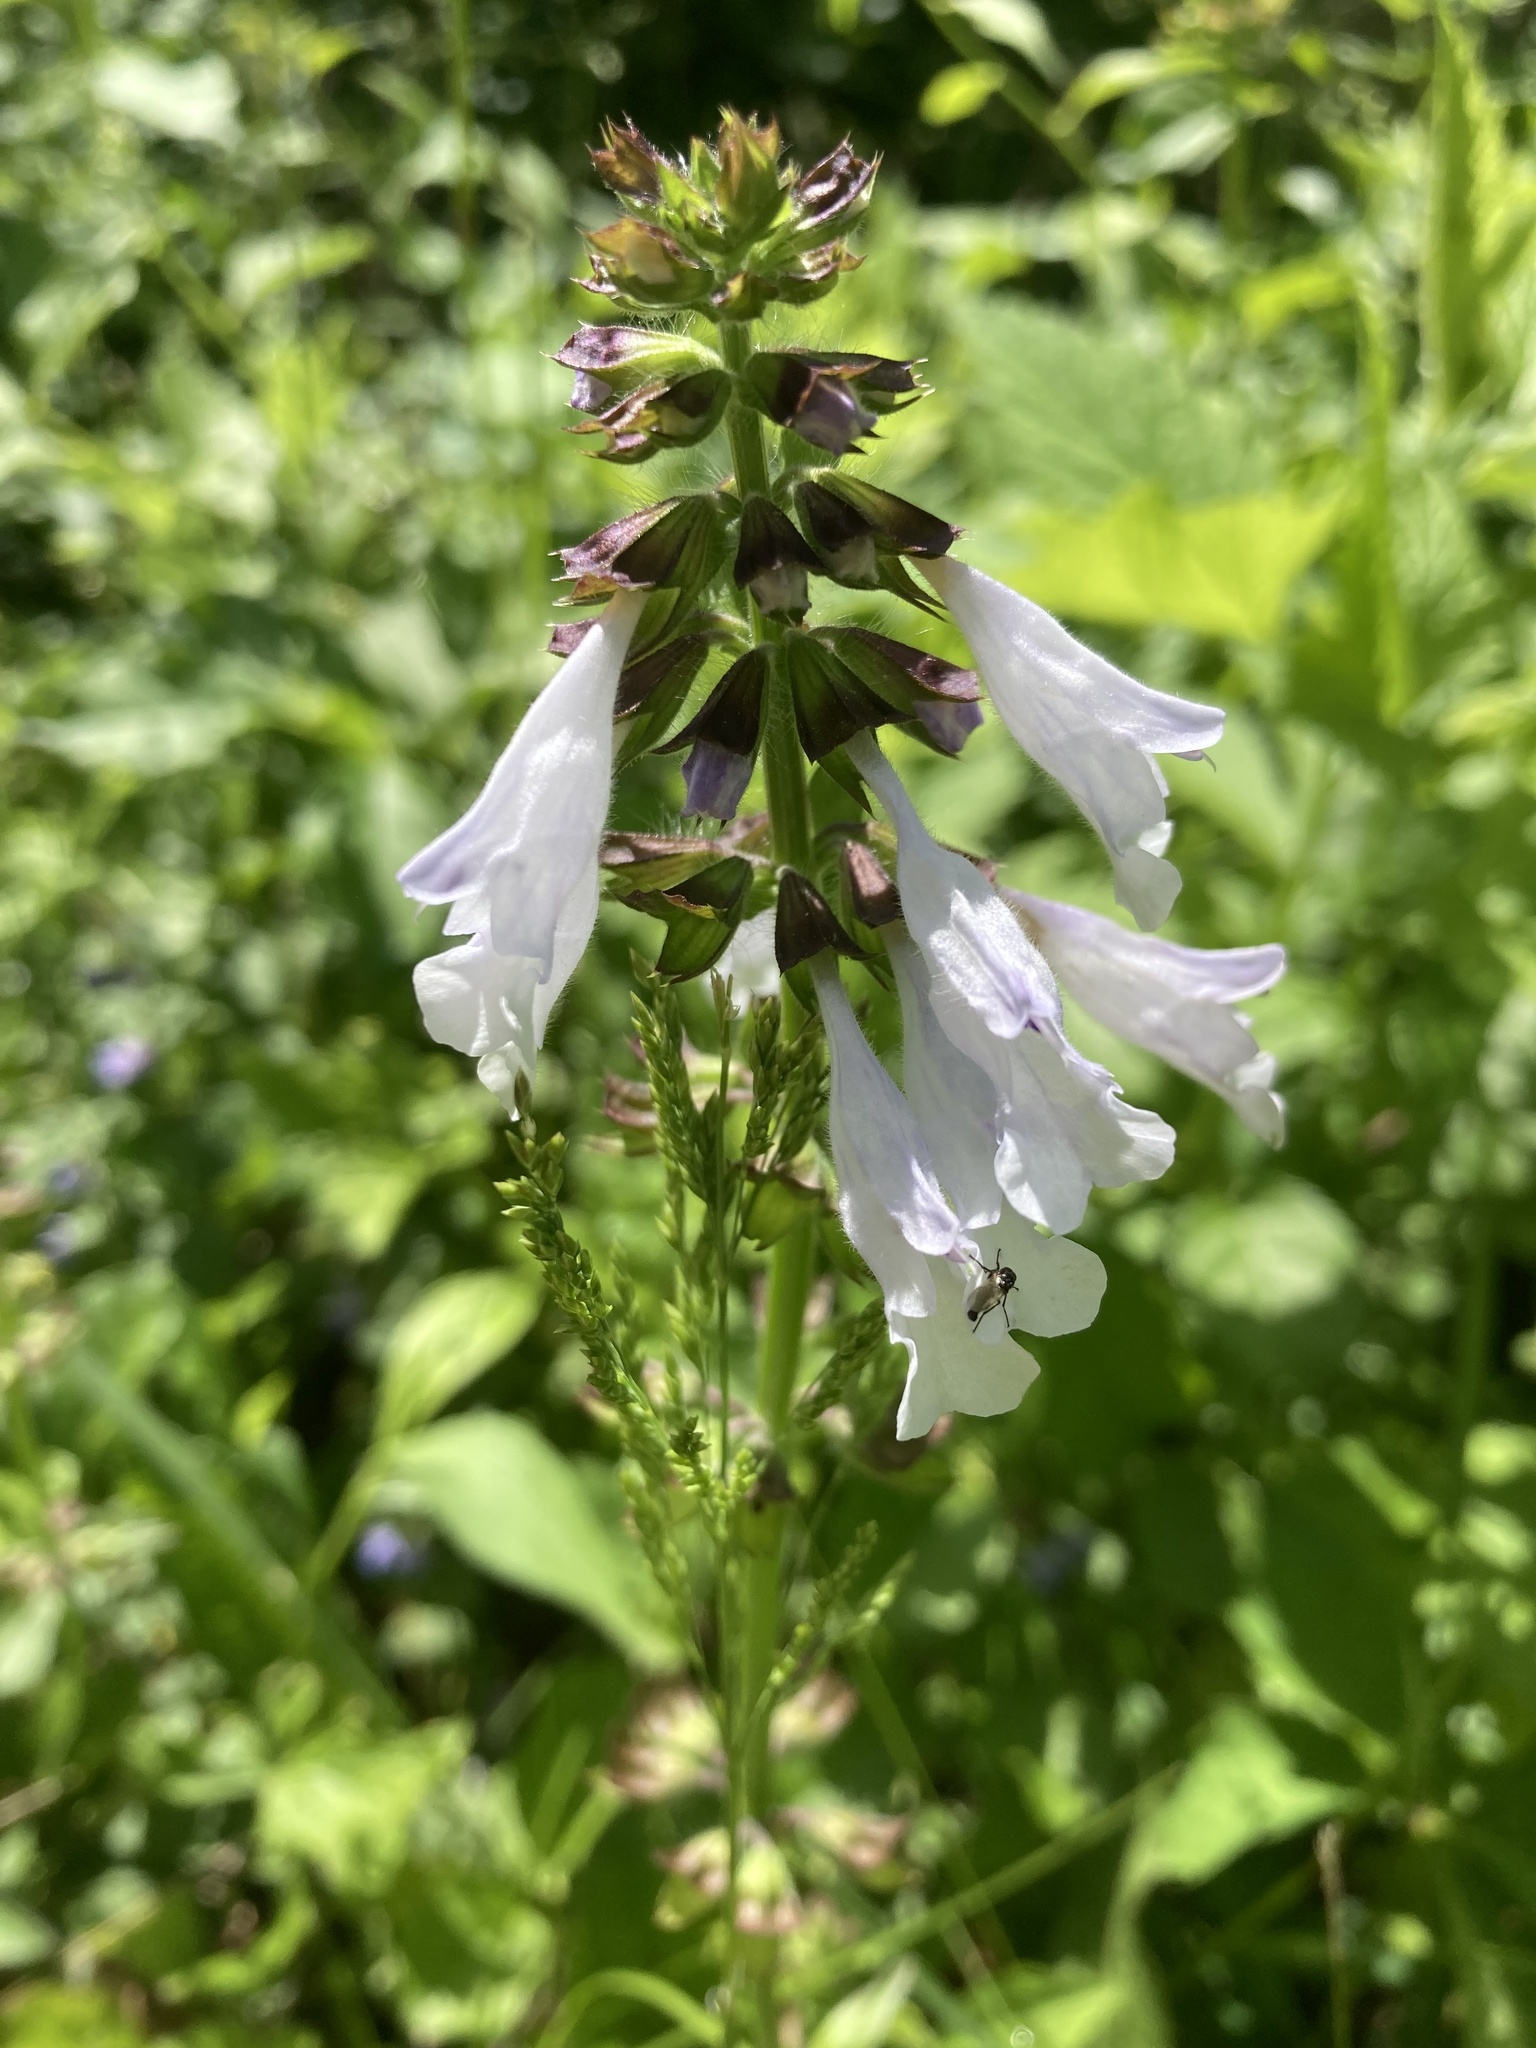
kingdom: Plantae
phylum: Tracheophyta
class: Magnoliopsida
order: Lamiales
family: Lamiaceae
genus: Salvia
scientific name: Salvia lyrata
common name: Cancerweed
